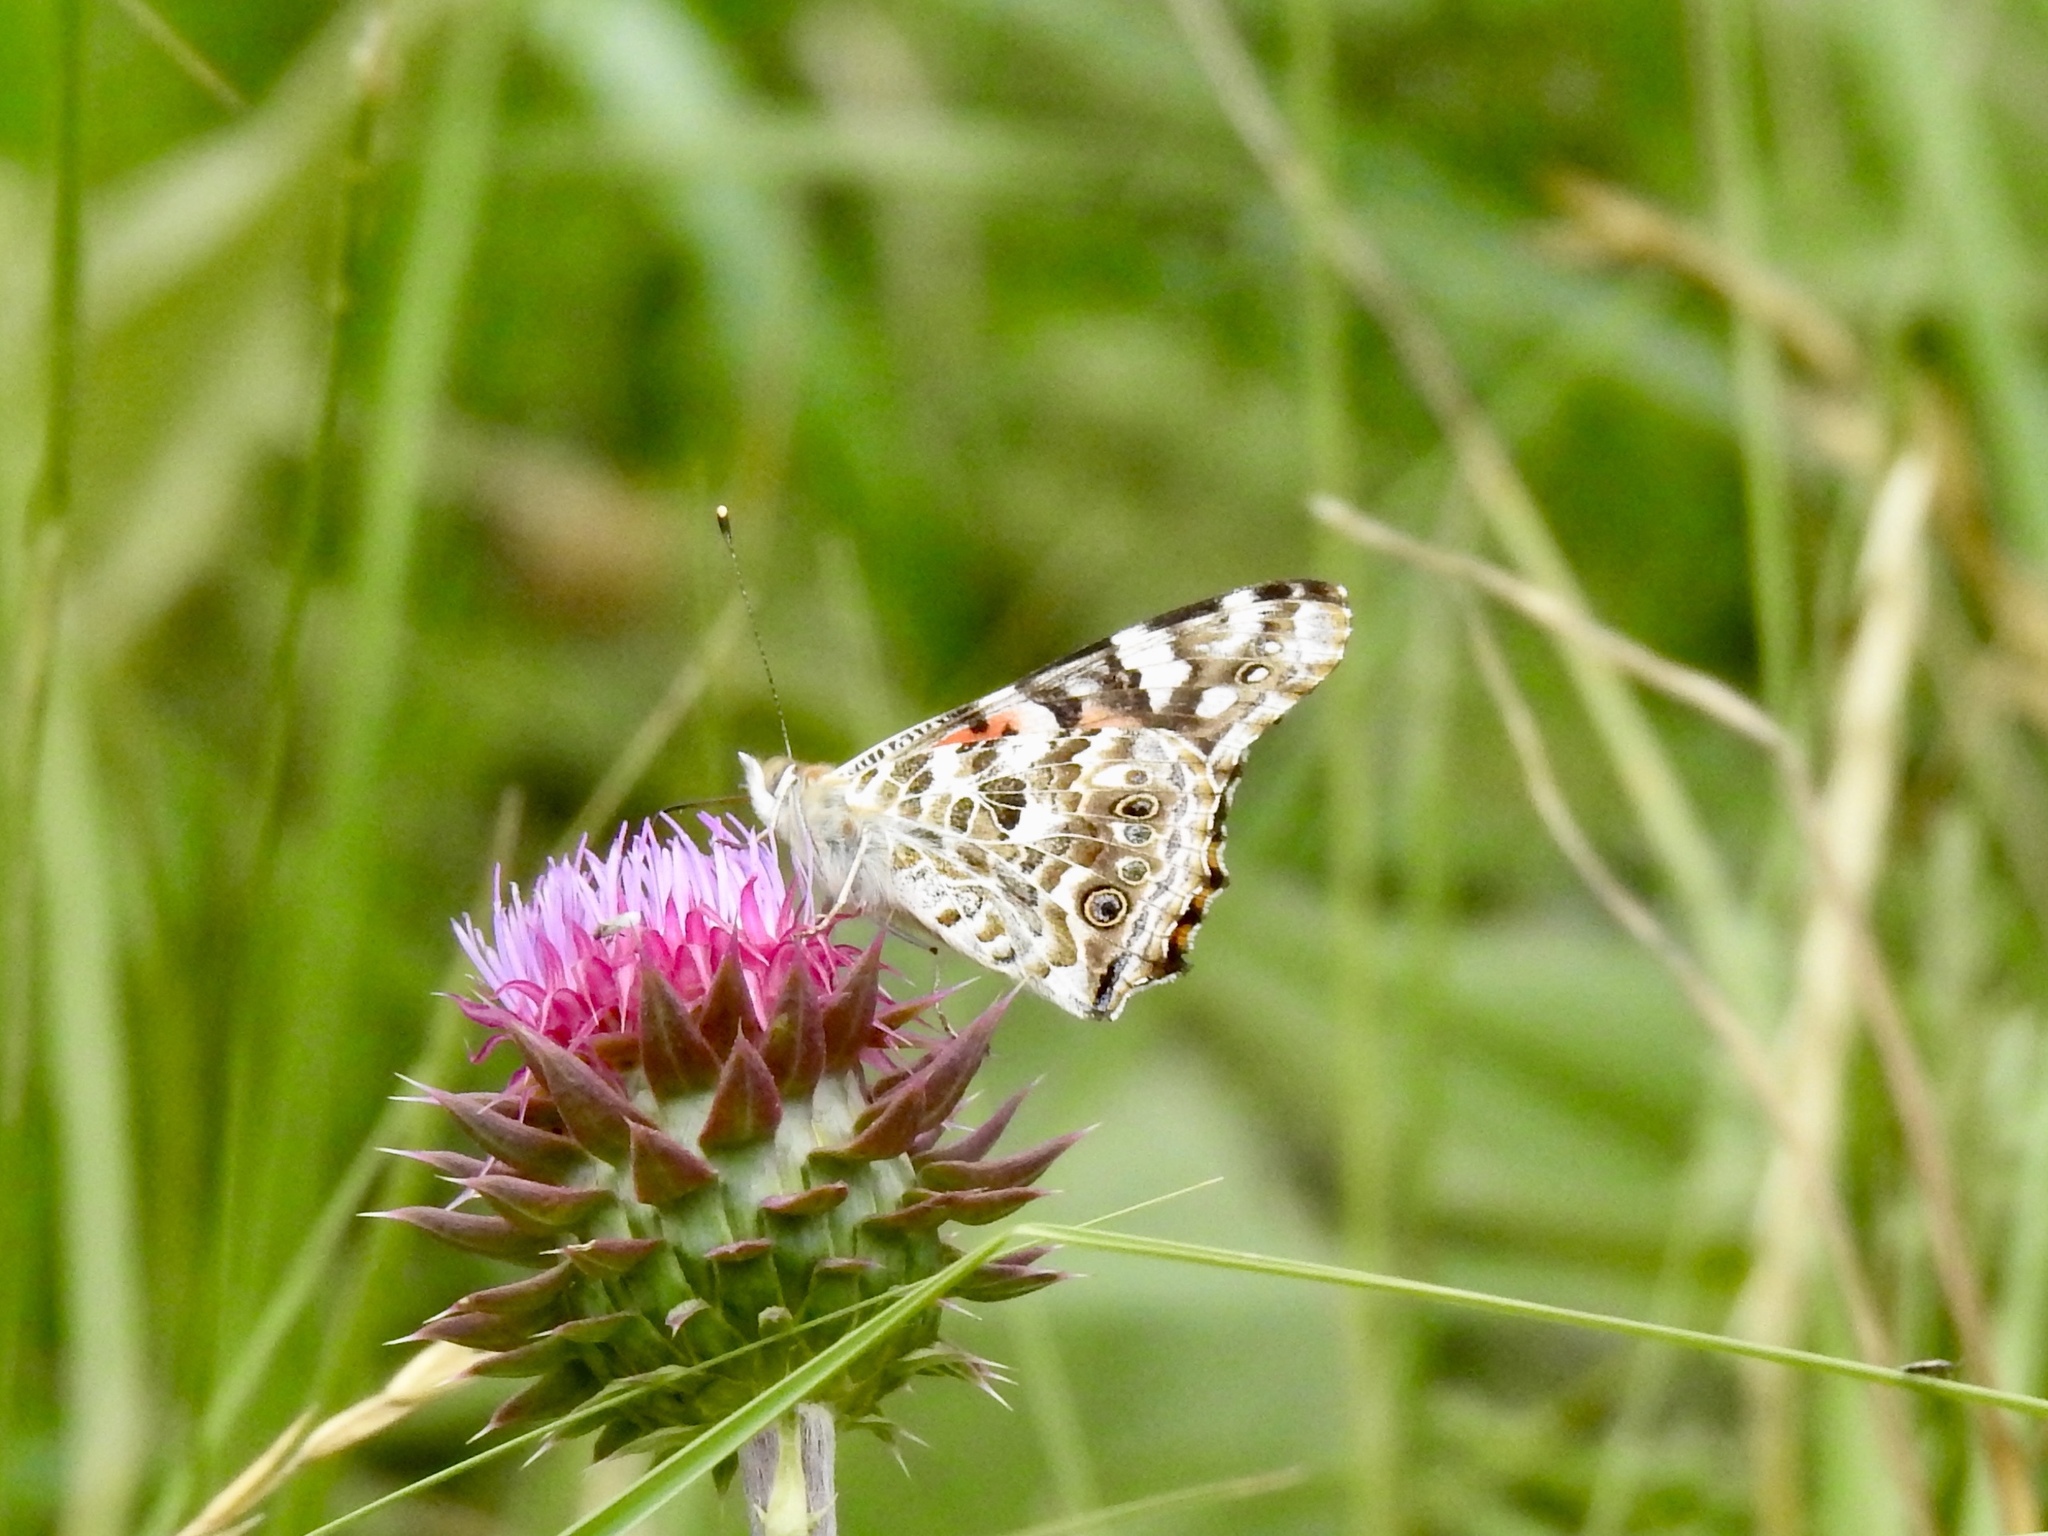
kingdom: Animalia
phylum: Arthropoda
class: Insecta
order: Lepidoptera
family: Nymphalidae
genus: Vanessa
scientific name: Vanessa cardui
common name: Painted lady
